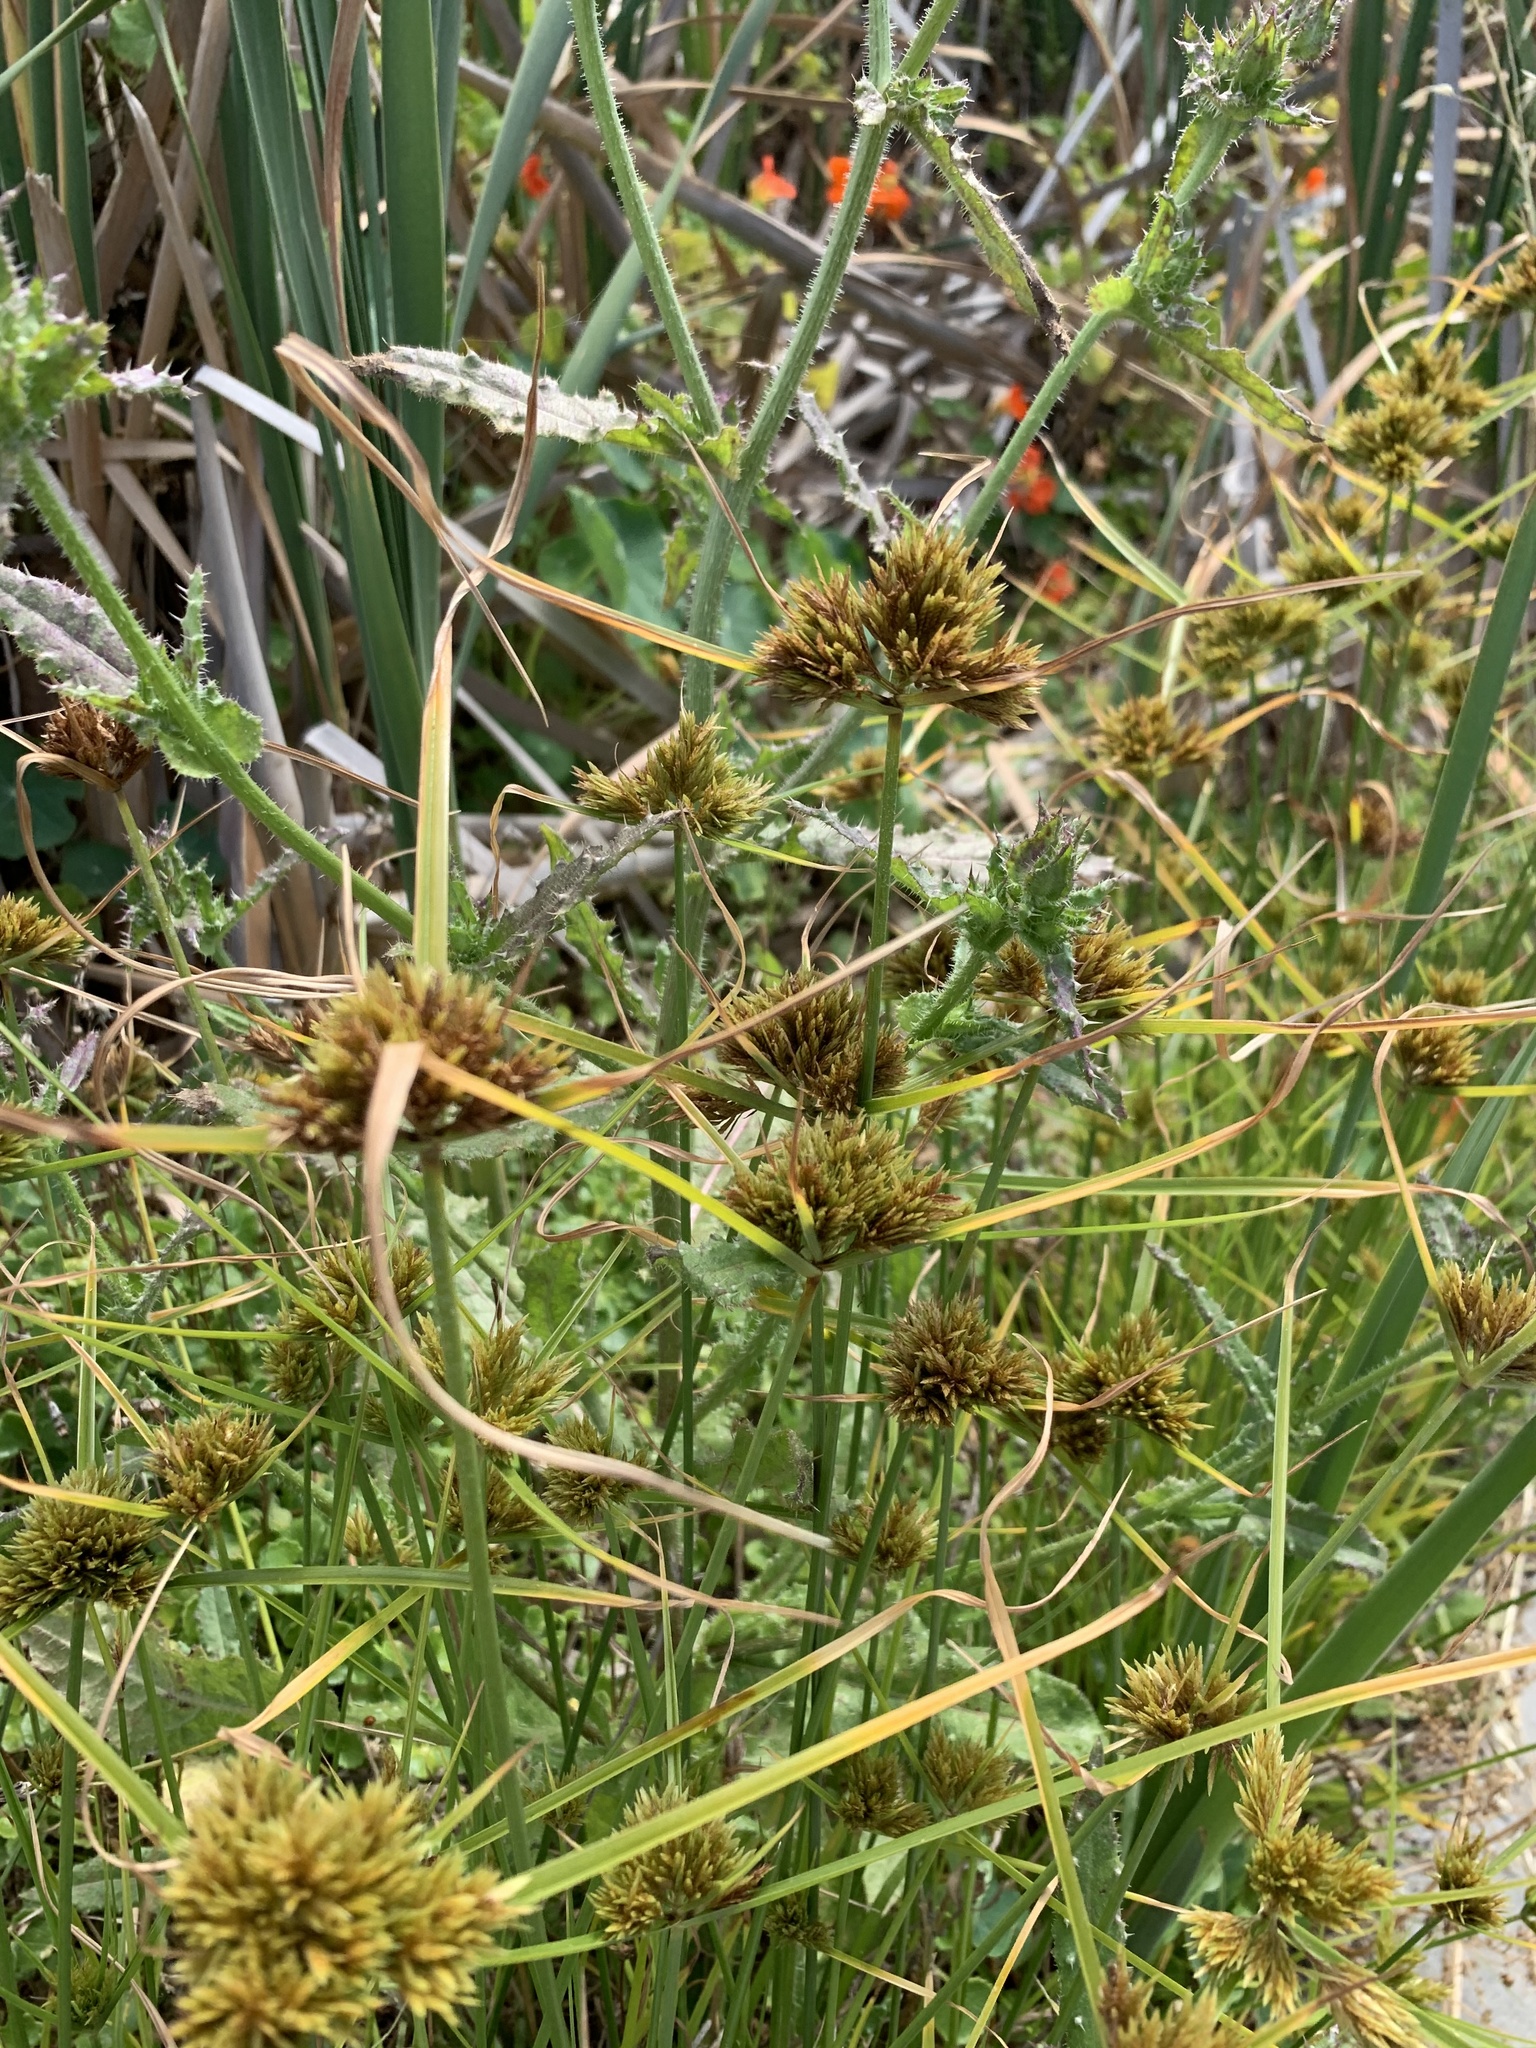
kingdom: Plantae
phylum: Tracheophyta
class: Liliopsida
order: Poales
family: Cyperaceae
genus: Cyperus
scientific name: Cyperus polystachyos
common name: Bunchy flat sedge
